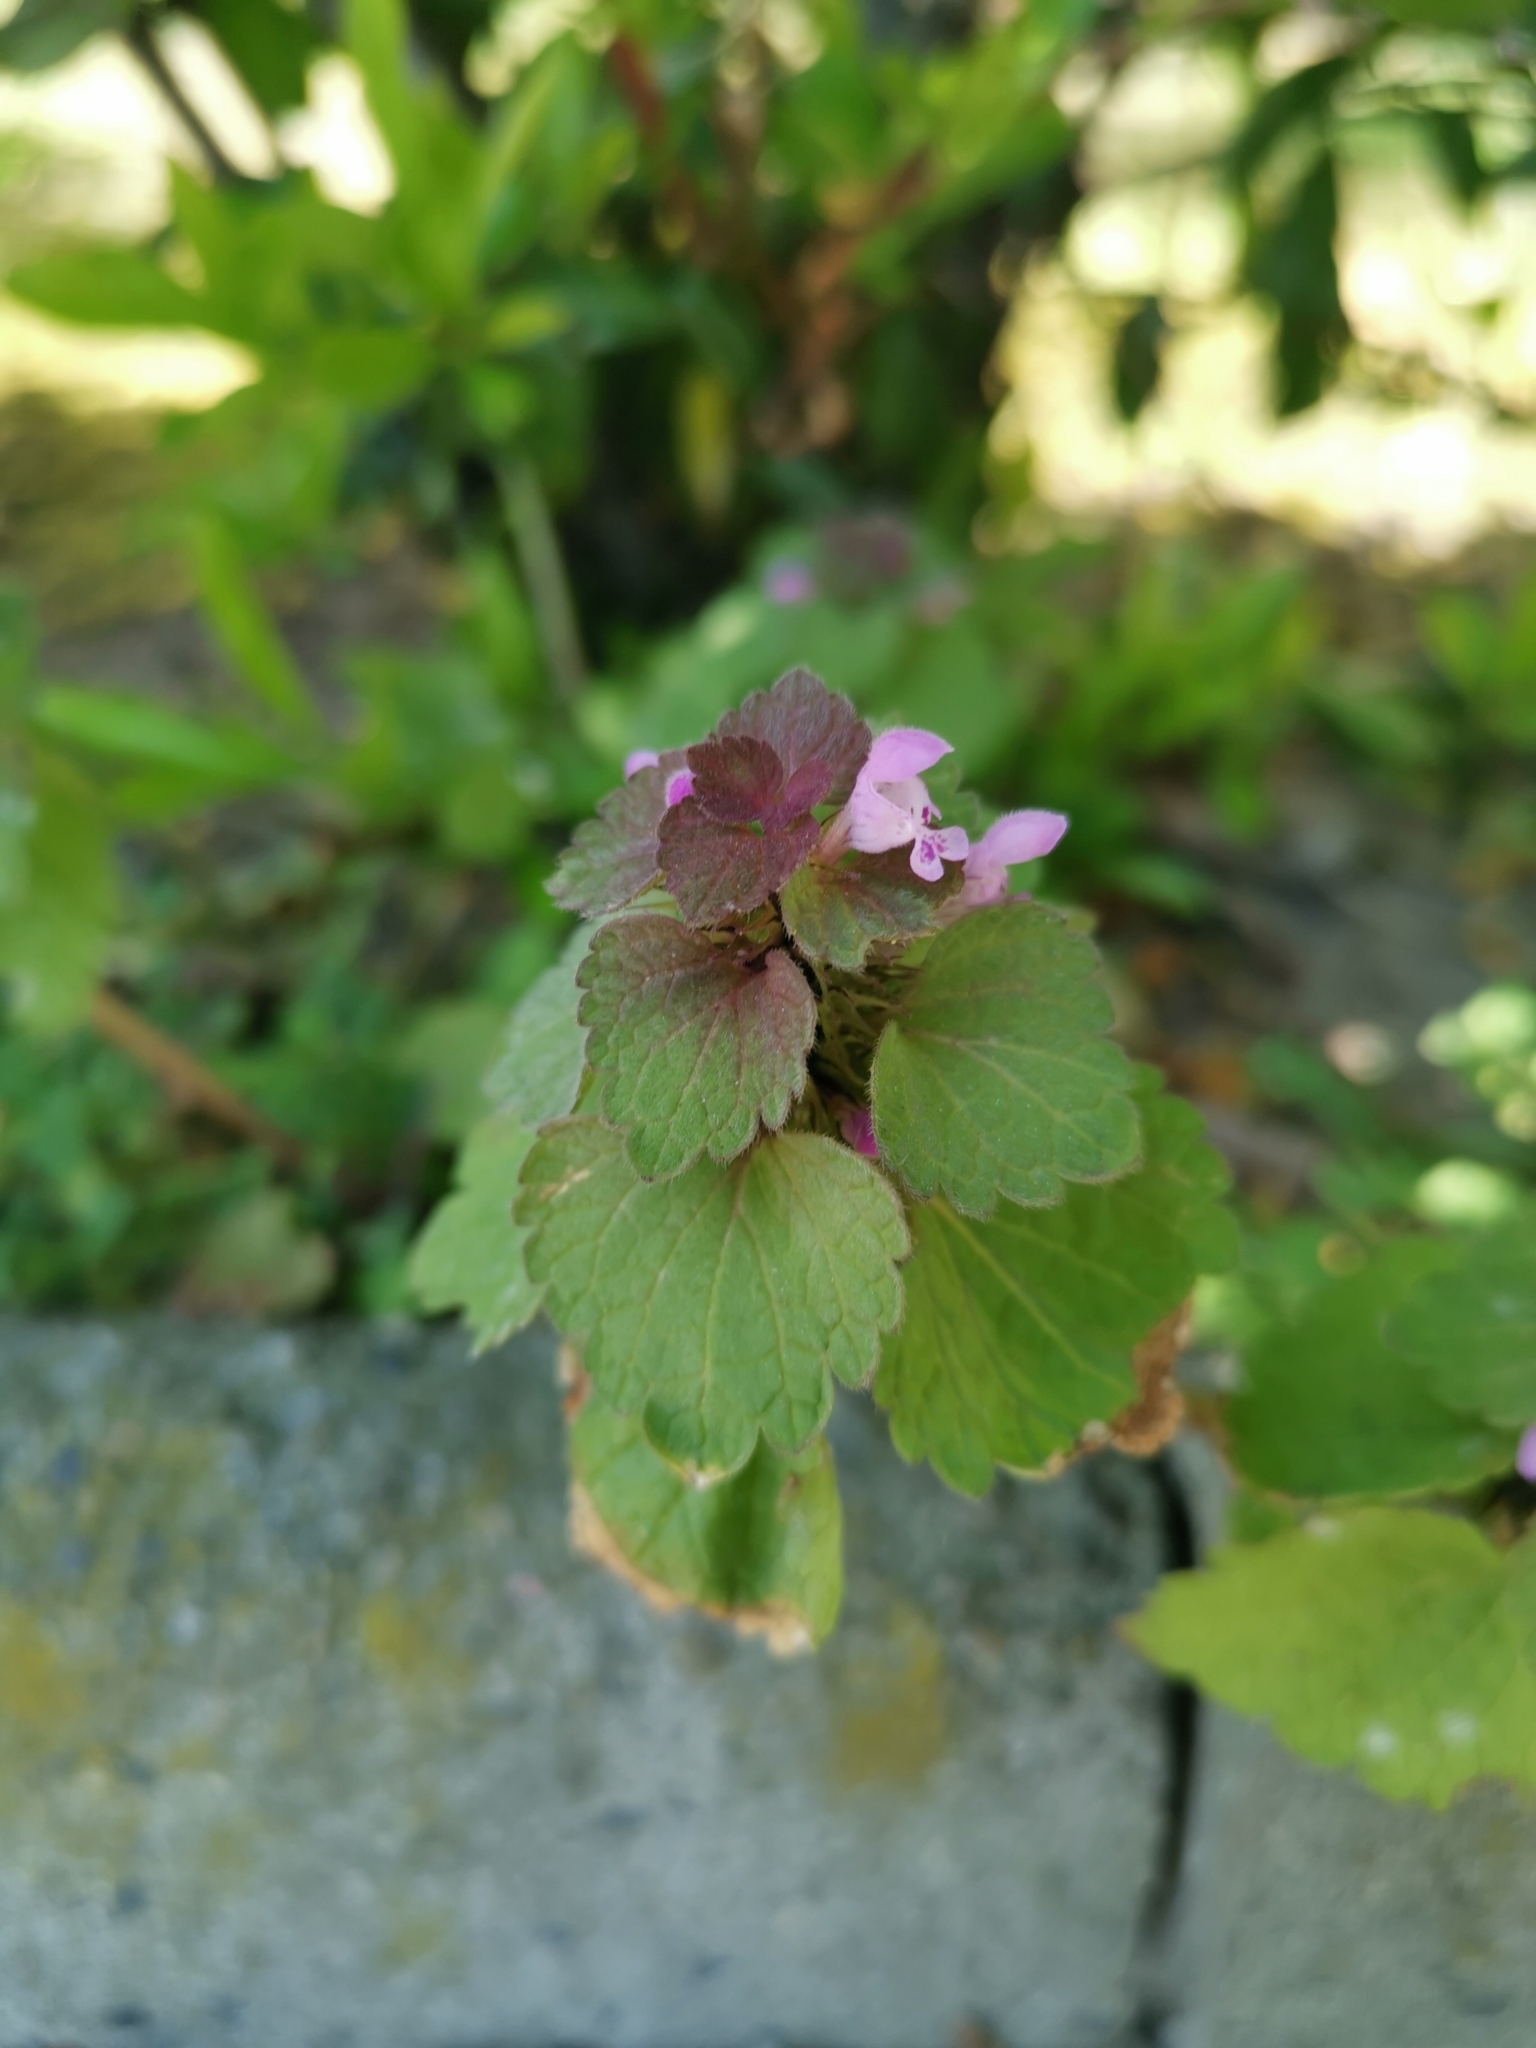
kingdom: Plantae
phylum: Tracheophyta
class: Magnoliopsida
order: Lamiales
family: Lamiaceae
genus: Lamium
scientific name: Lamium purpureum
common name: Red dead-nettle
